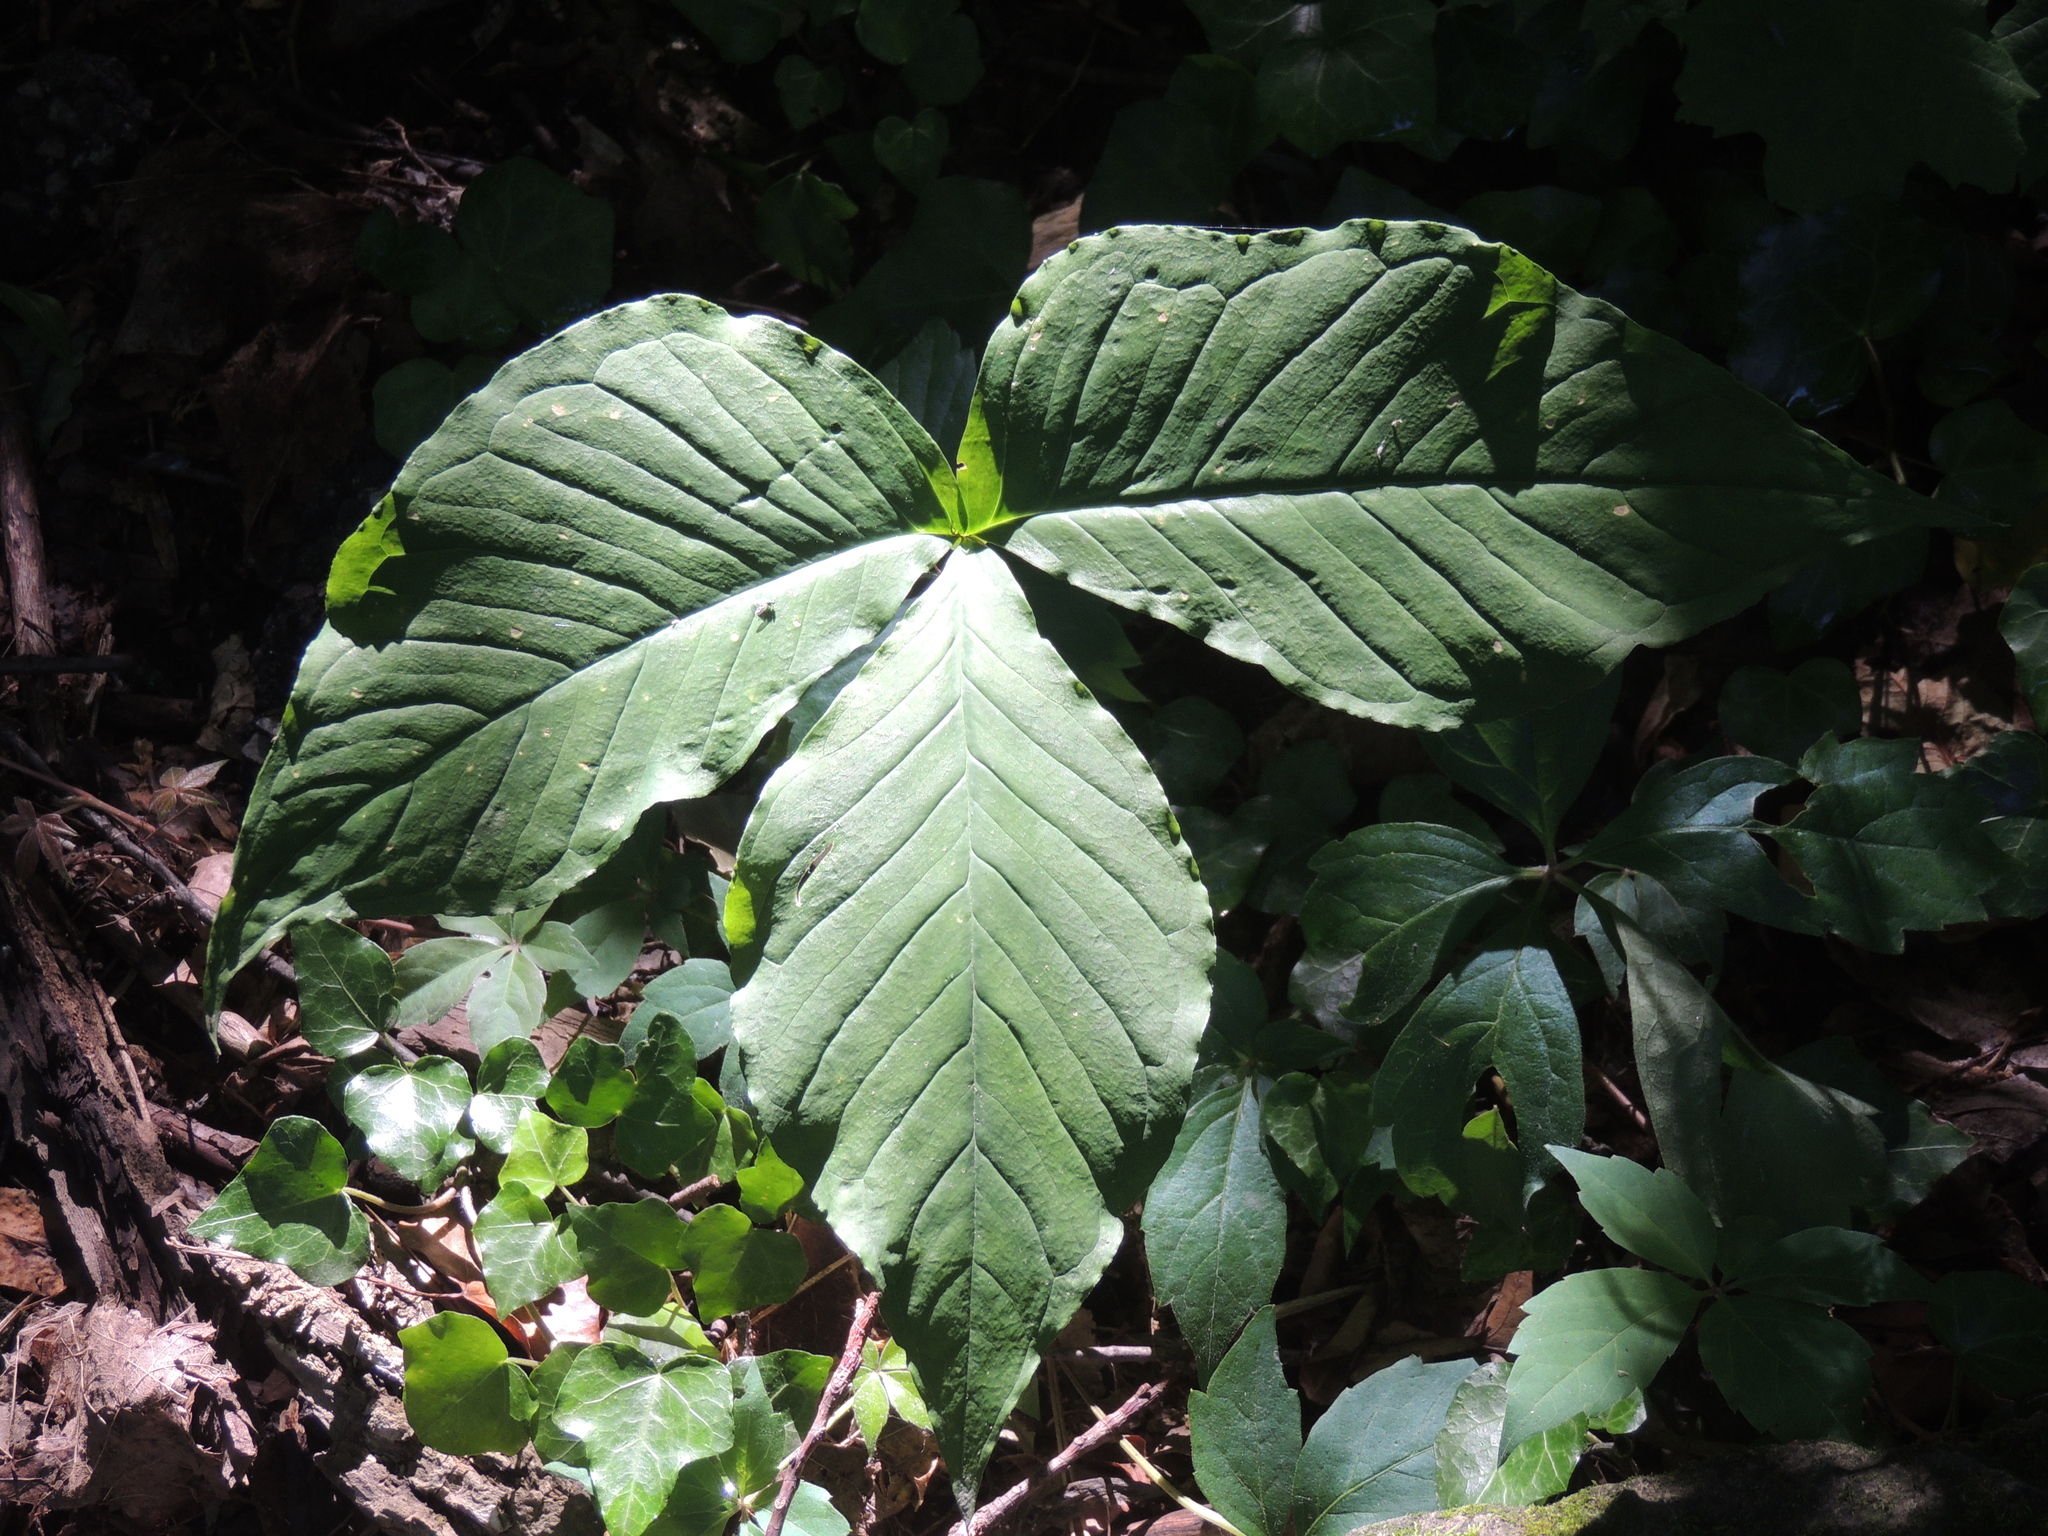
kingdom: Plantae
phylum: Tracheophyta
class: Liliopsida
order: Alismatales
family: Araceae
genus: Arisaema
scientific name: Arisaema triphyllum
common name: Jack-in-the-pulpit
